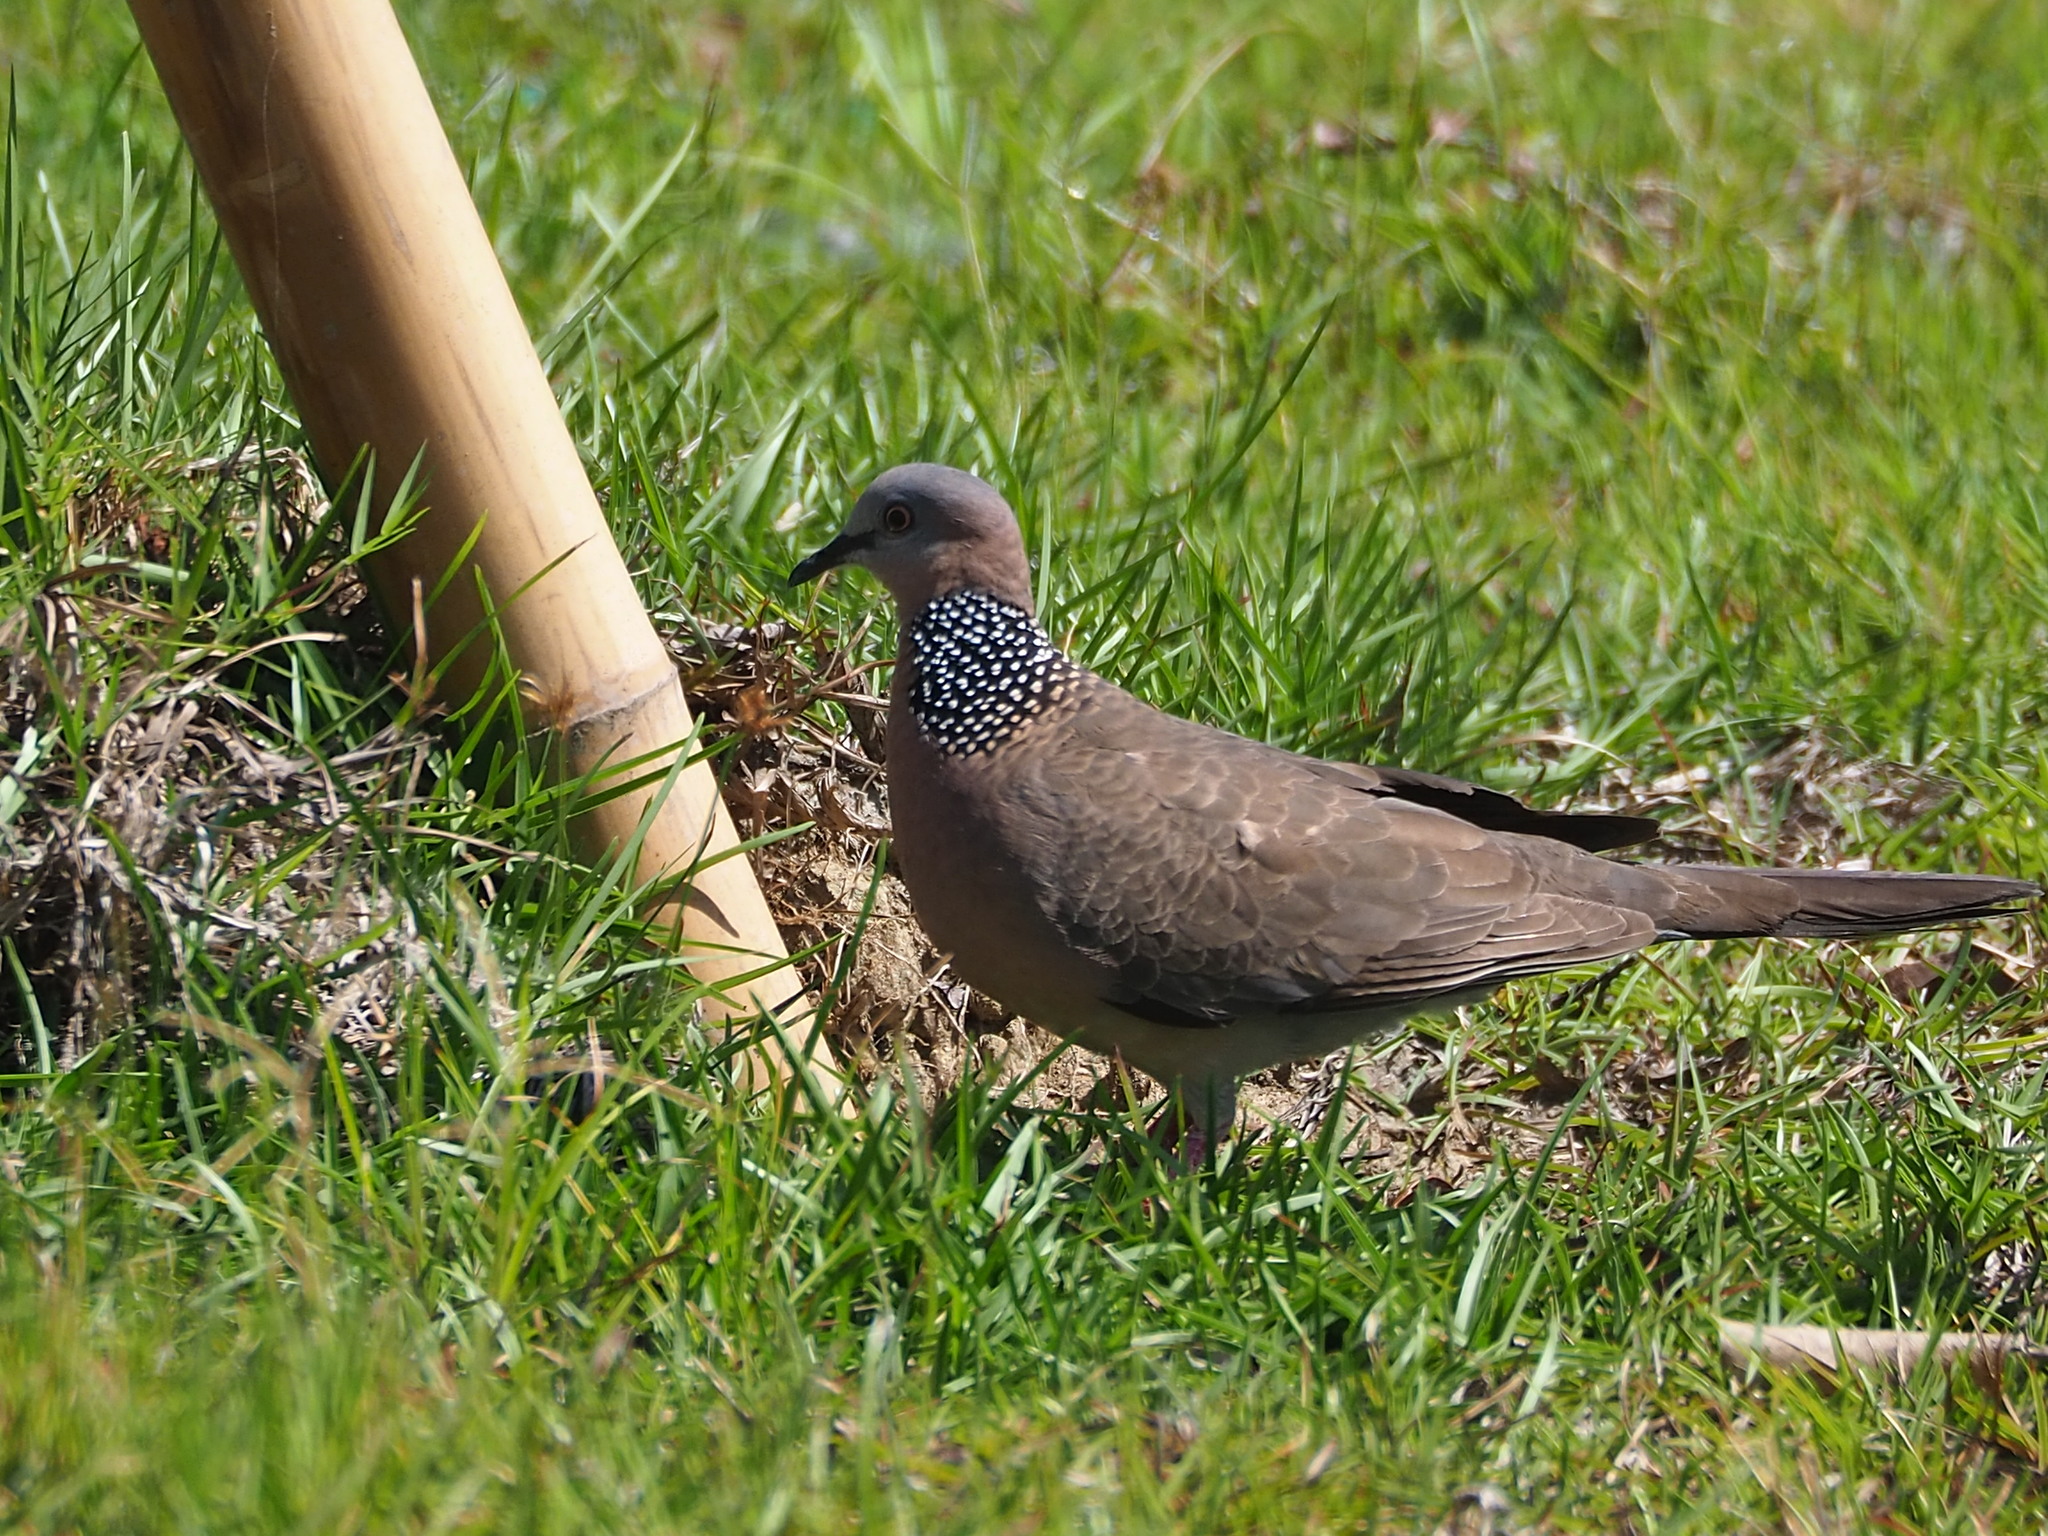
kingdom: Animalia
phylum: Chordata
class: Aves
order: Columbiformes
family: Columbidae
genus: Spilopelia
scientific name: Spilopelia chinensis
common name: Spotted dove
